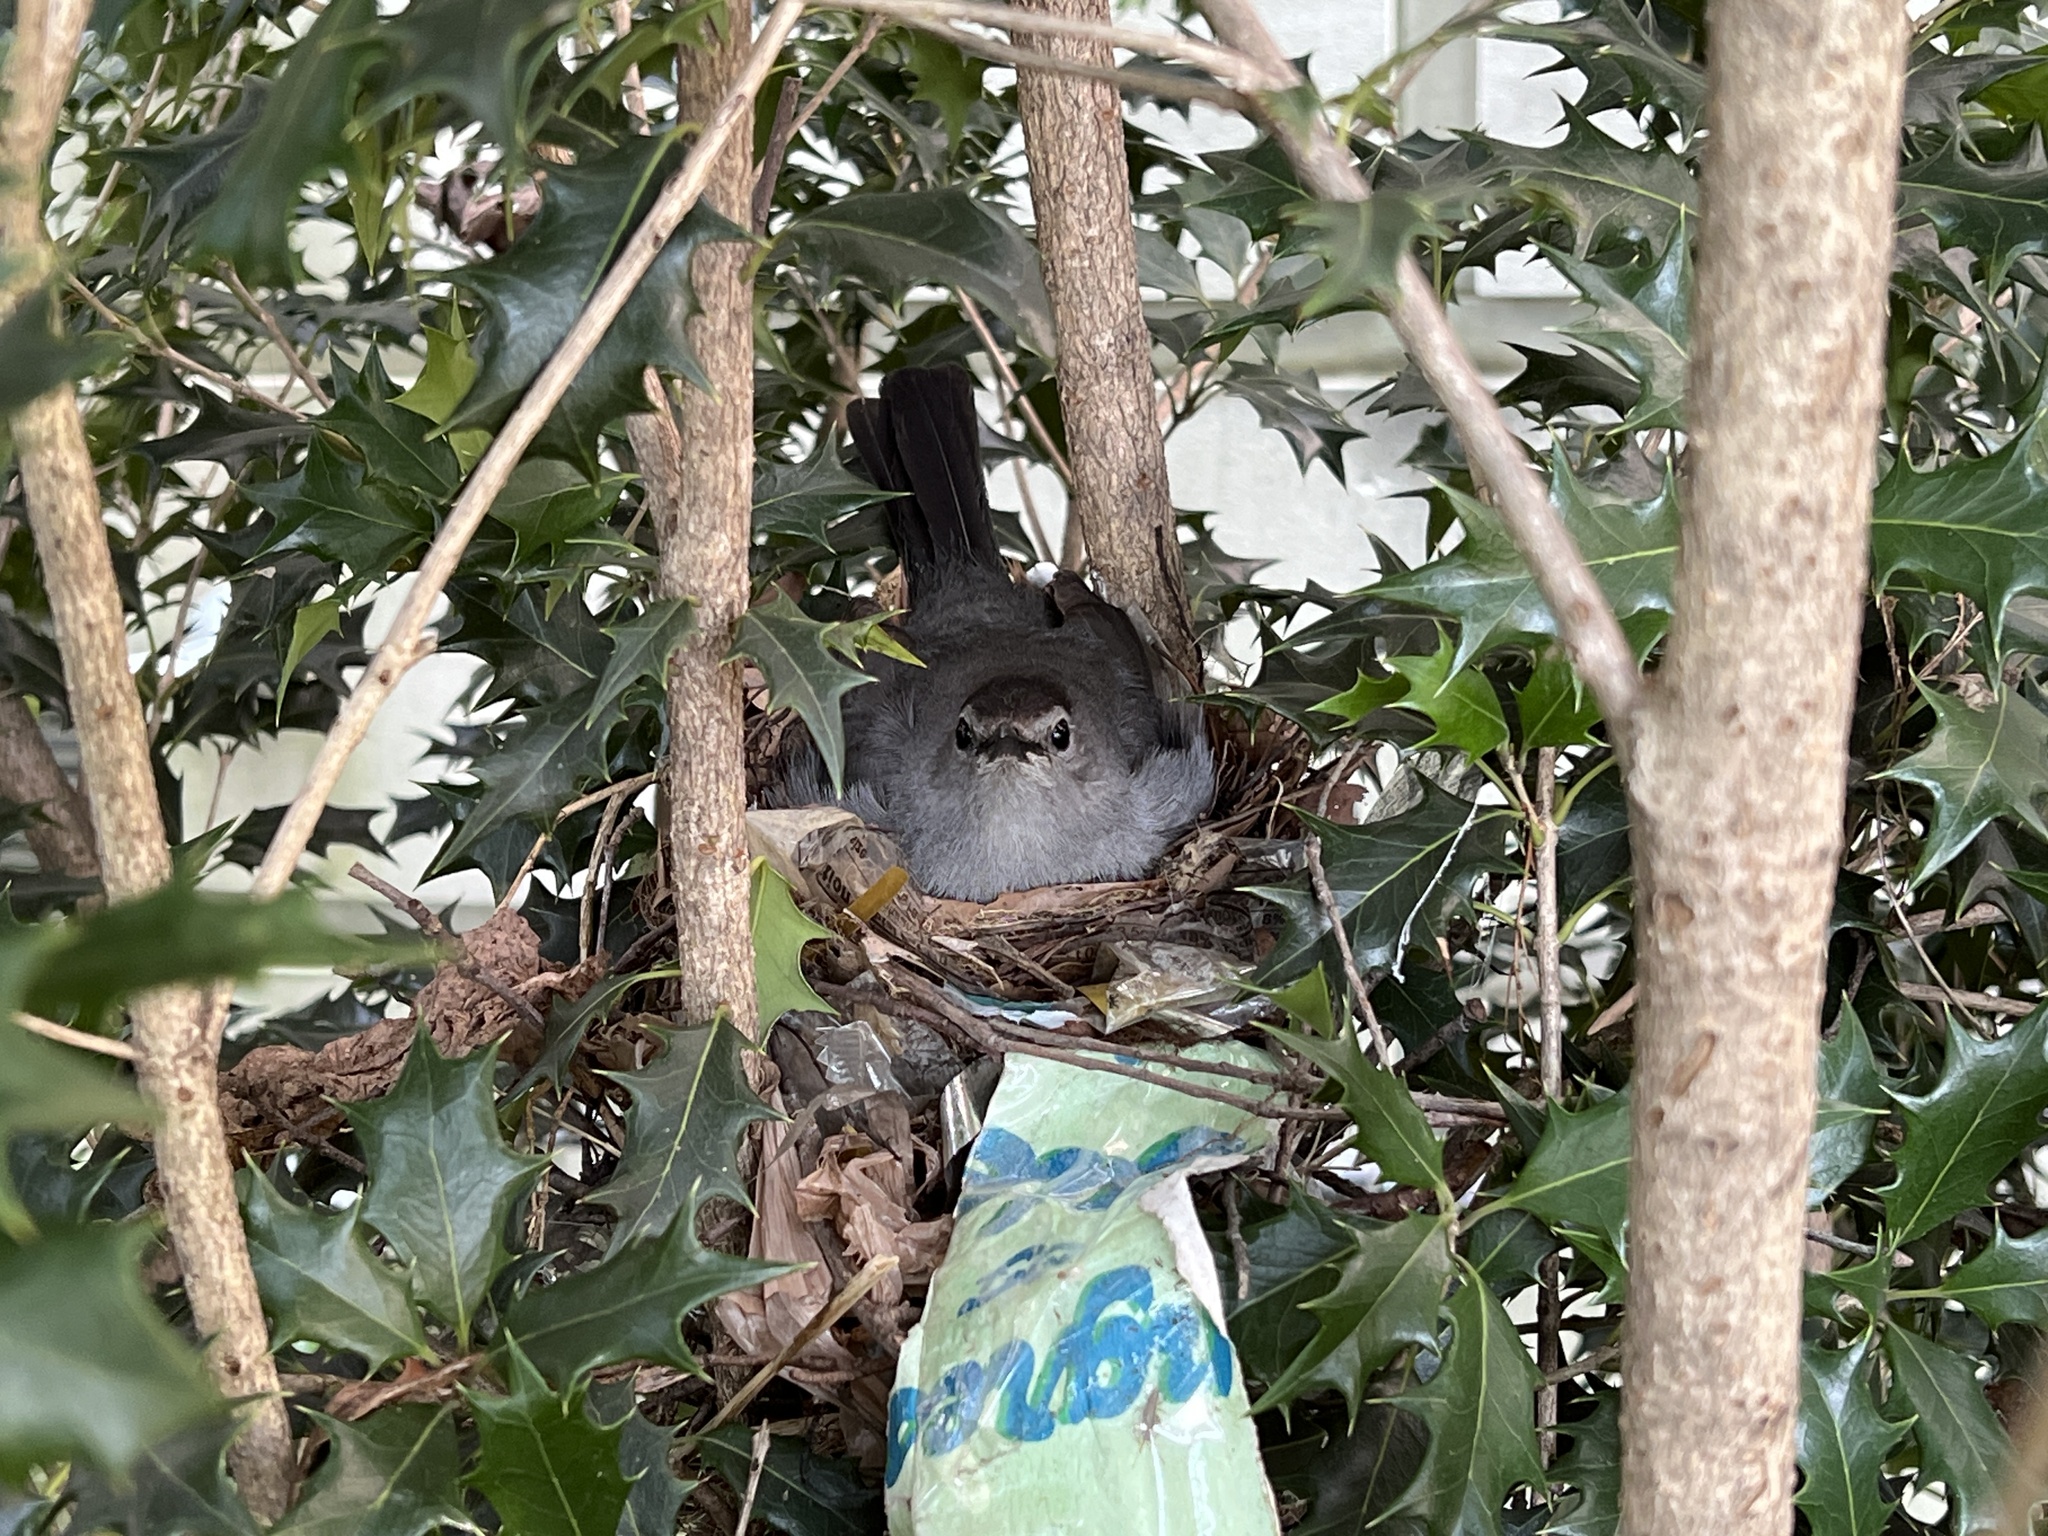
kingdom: Animalia
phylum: Chordata
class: Aves
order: Passeriformes
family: Mimidae
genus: Dumetella
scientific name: Dumetella carolinensis
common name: Gray catbird
